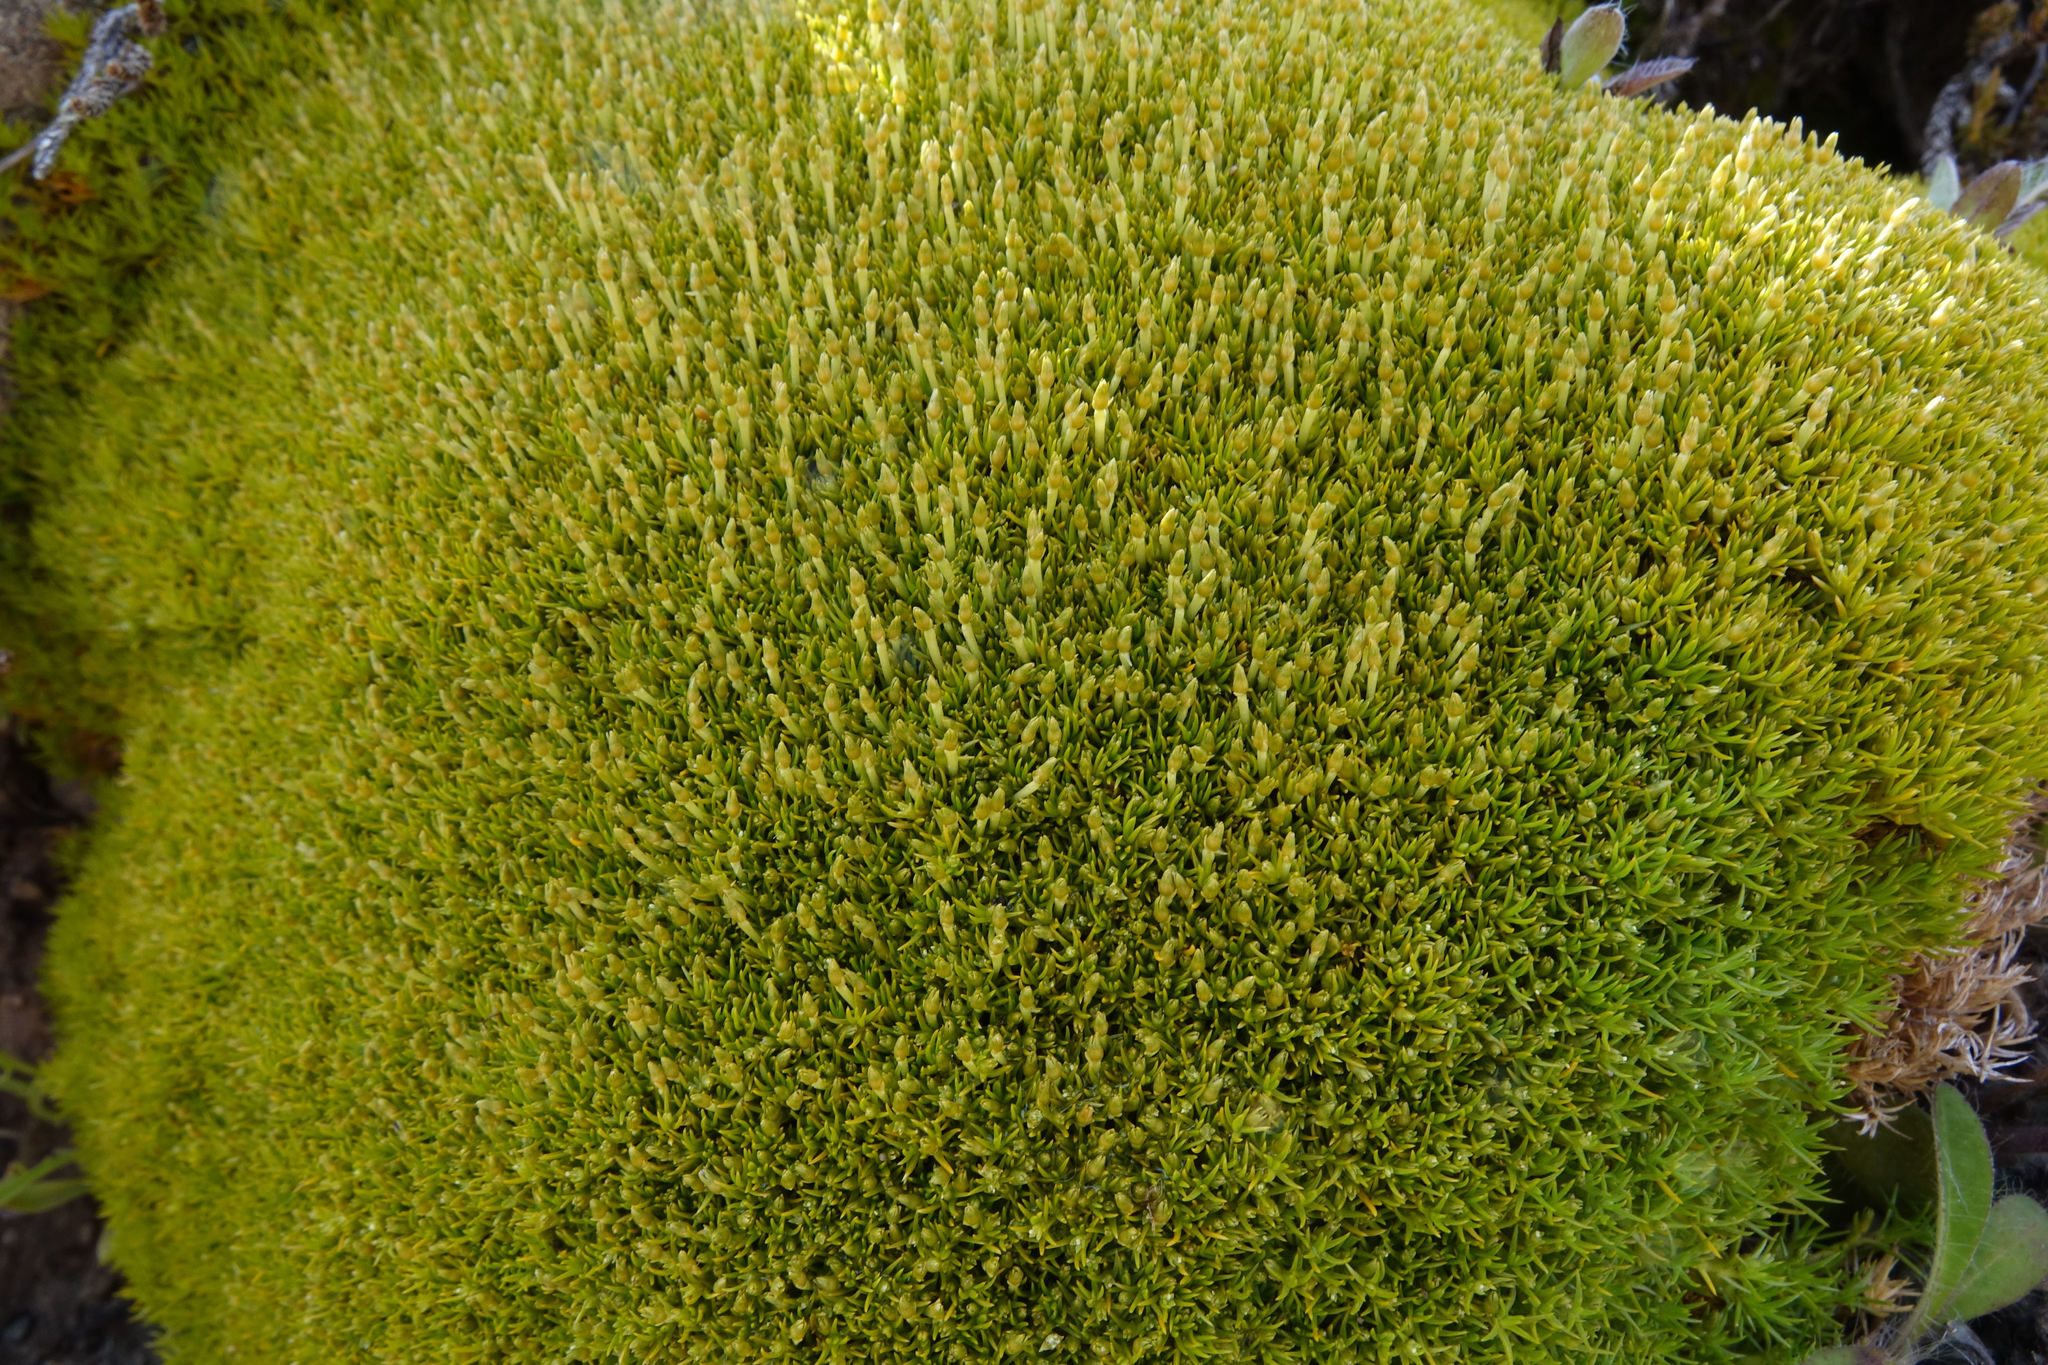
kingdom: Plantae
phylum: Tracheophyta
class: Magnoliopsida
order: Caryophyllales
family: Caryophyllaceae
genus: Scleranthus
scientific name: Scleranthus uniflorus
